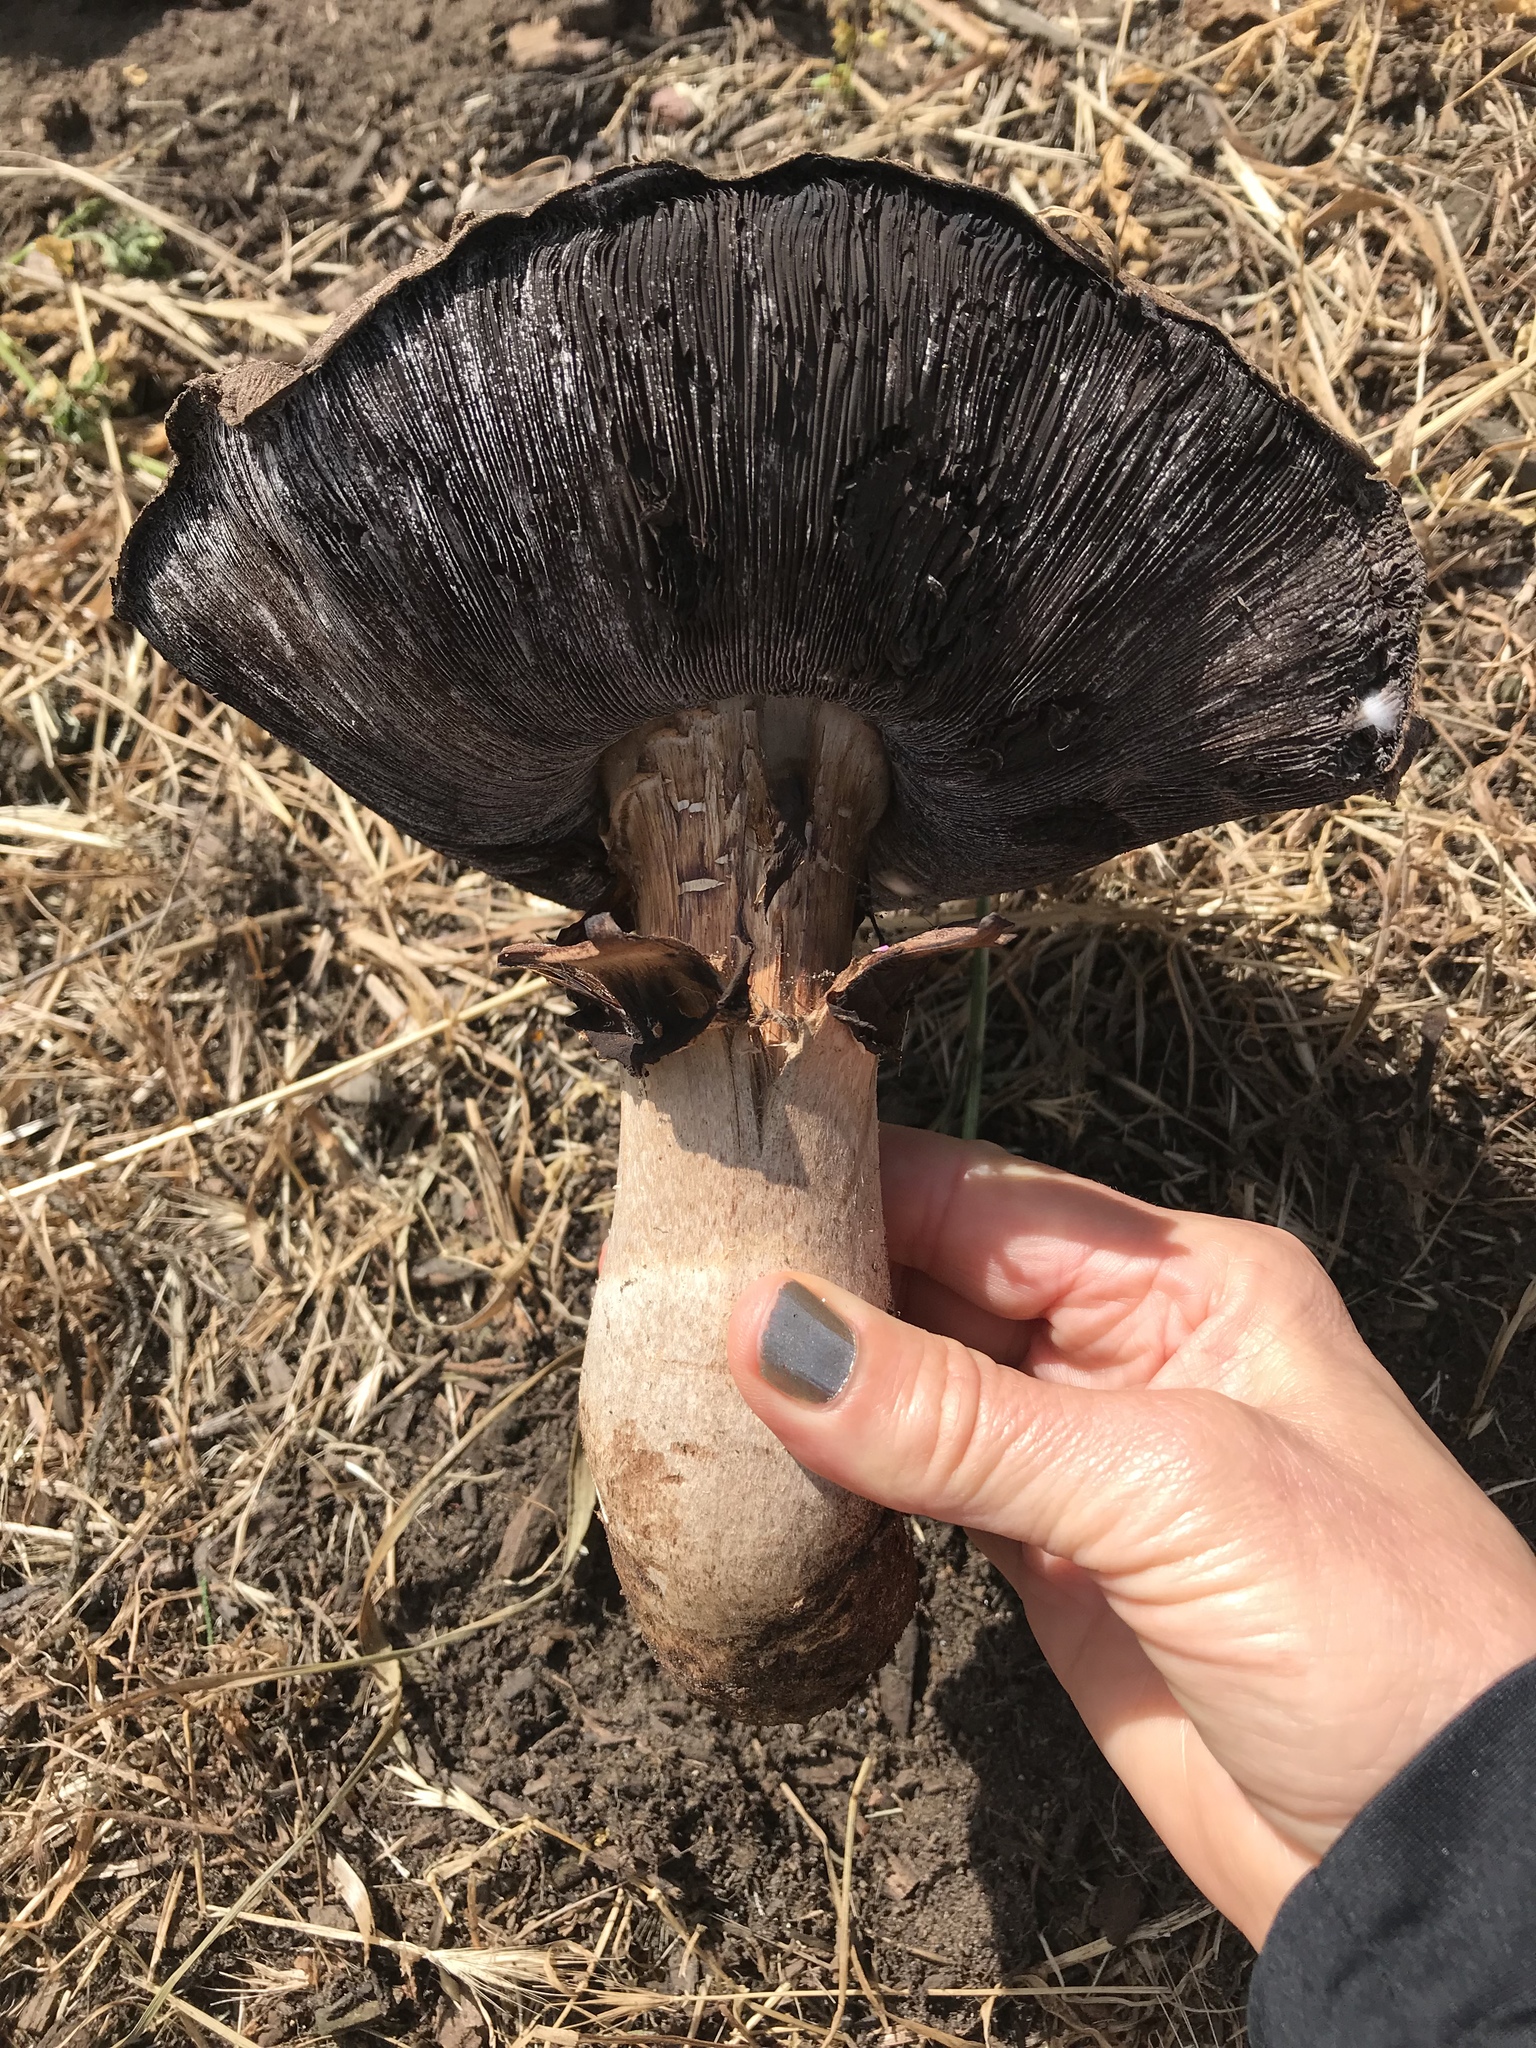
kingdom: Fungi
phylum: Basidiomycota
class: Agaricomycetes
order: Agaricales
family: Agaricaceae
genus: Agaricus
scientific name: Agaricus lilaceps
